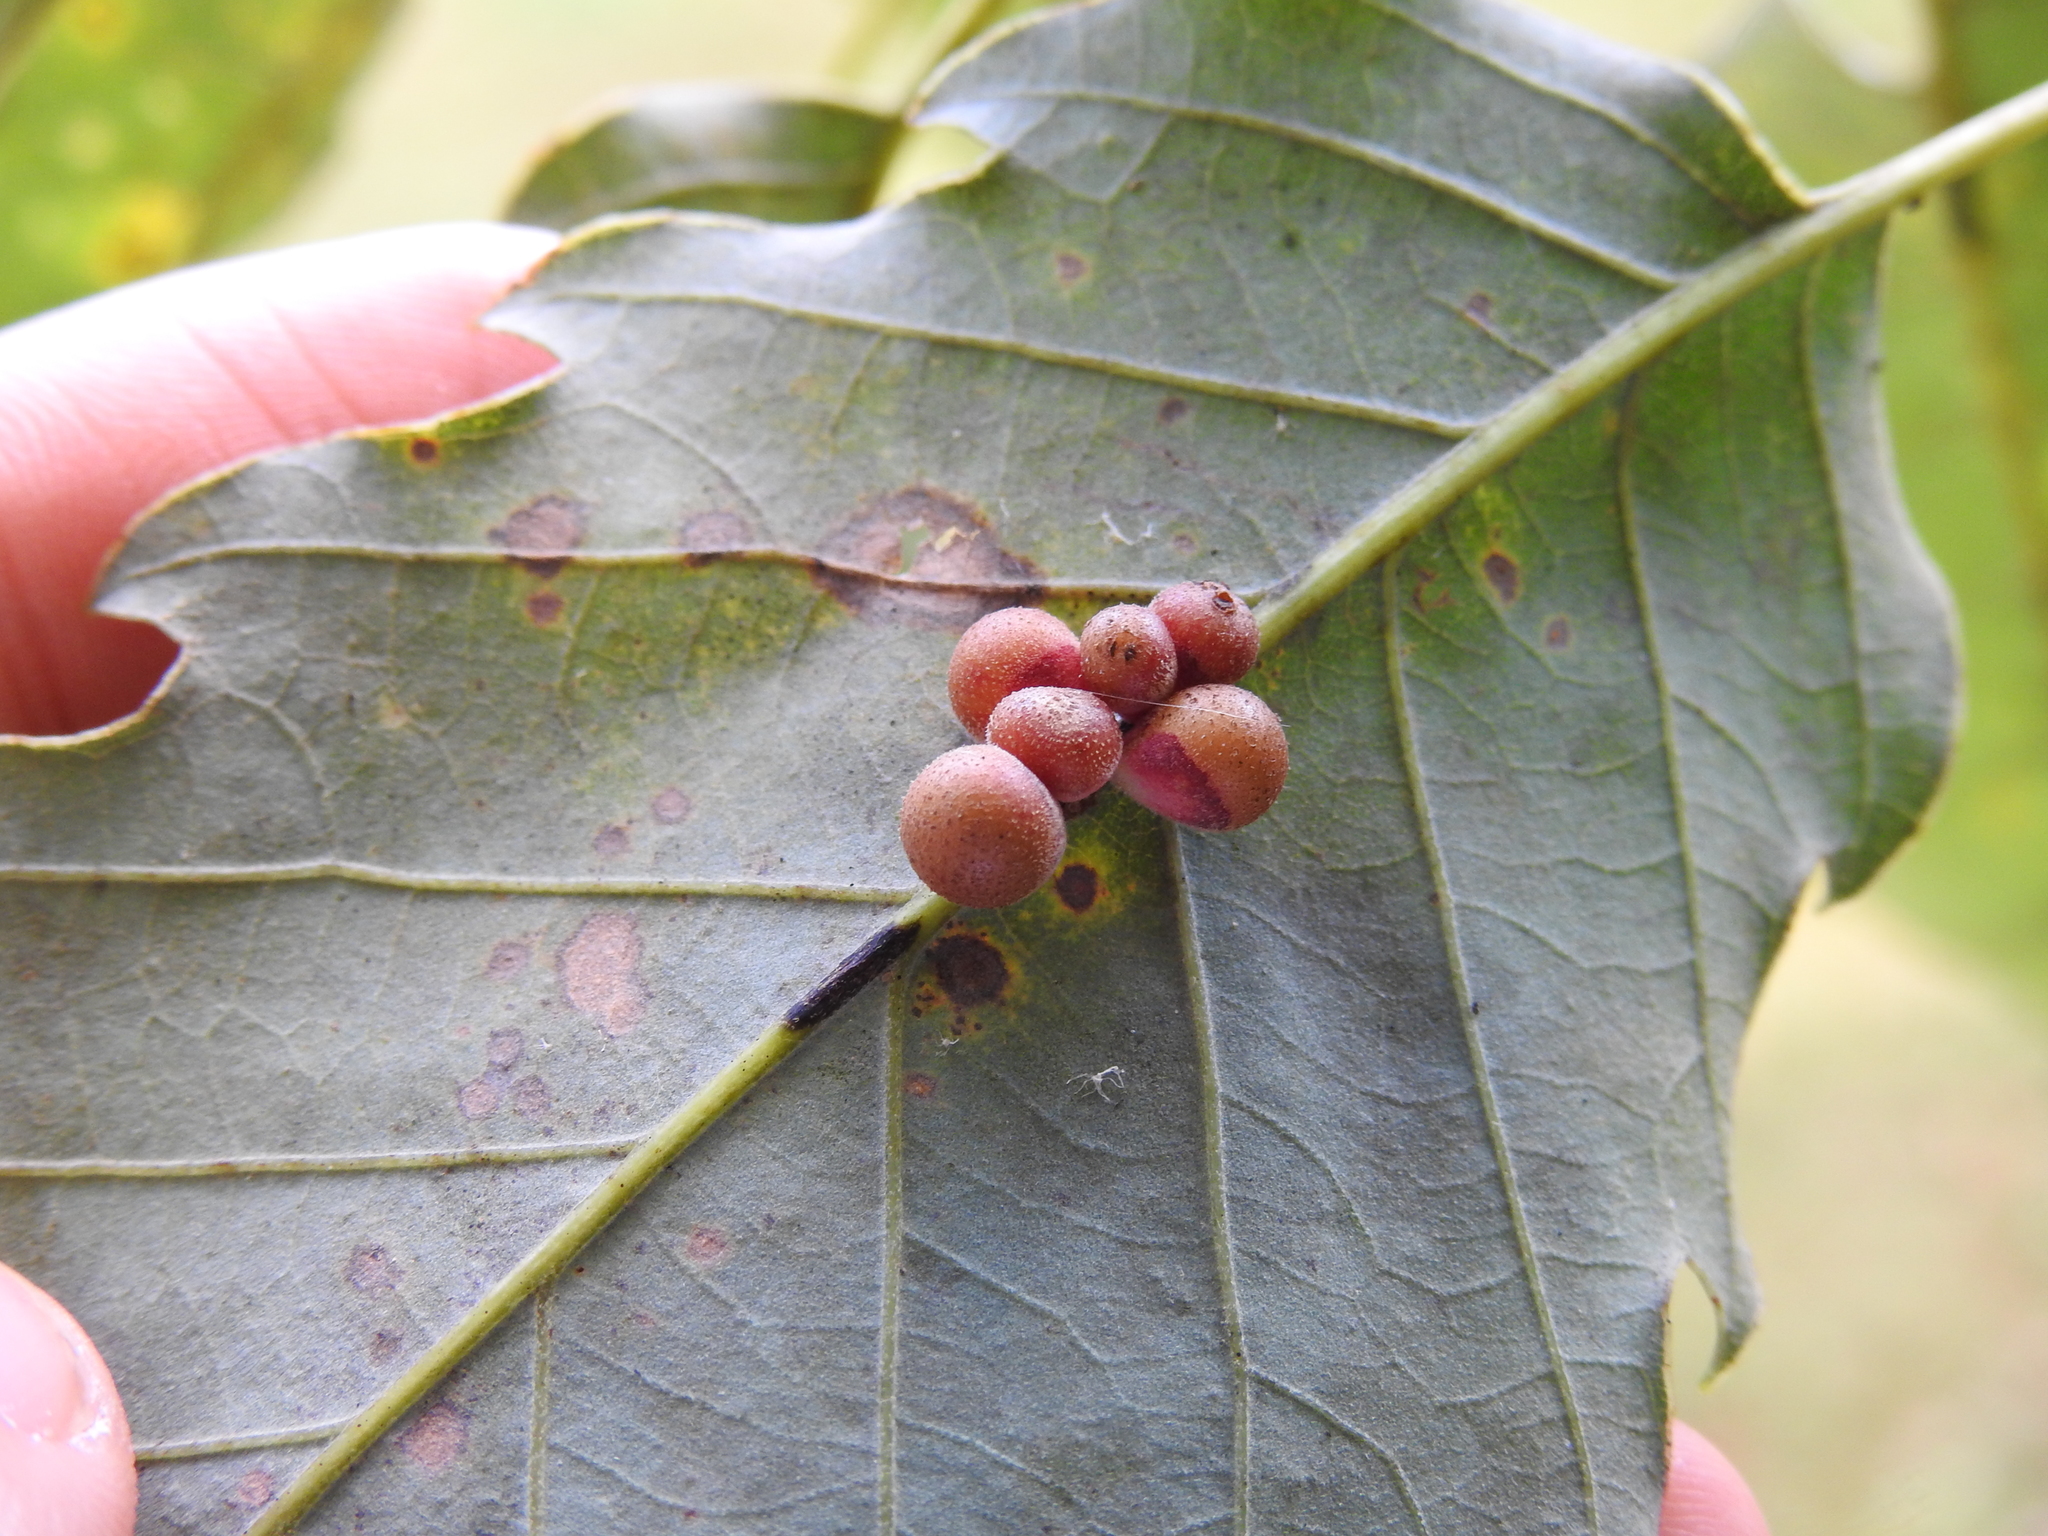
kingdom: Animalia
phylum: Arthropoda
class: Insecta
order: Hymenoptera
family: Cynipidae
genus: Andricus
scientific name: Andricus
